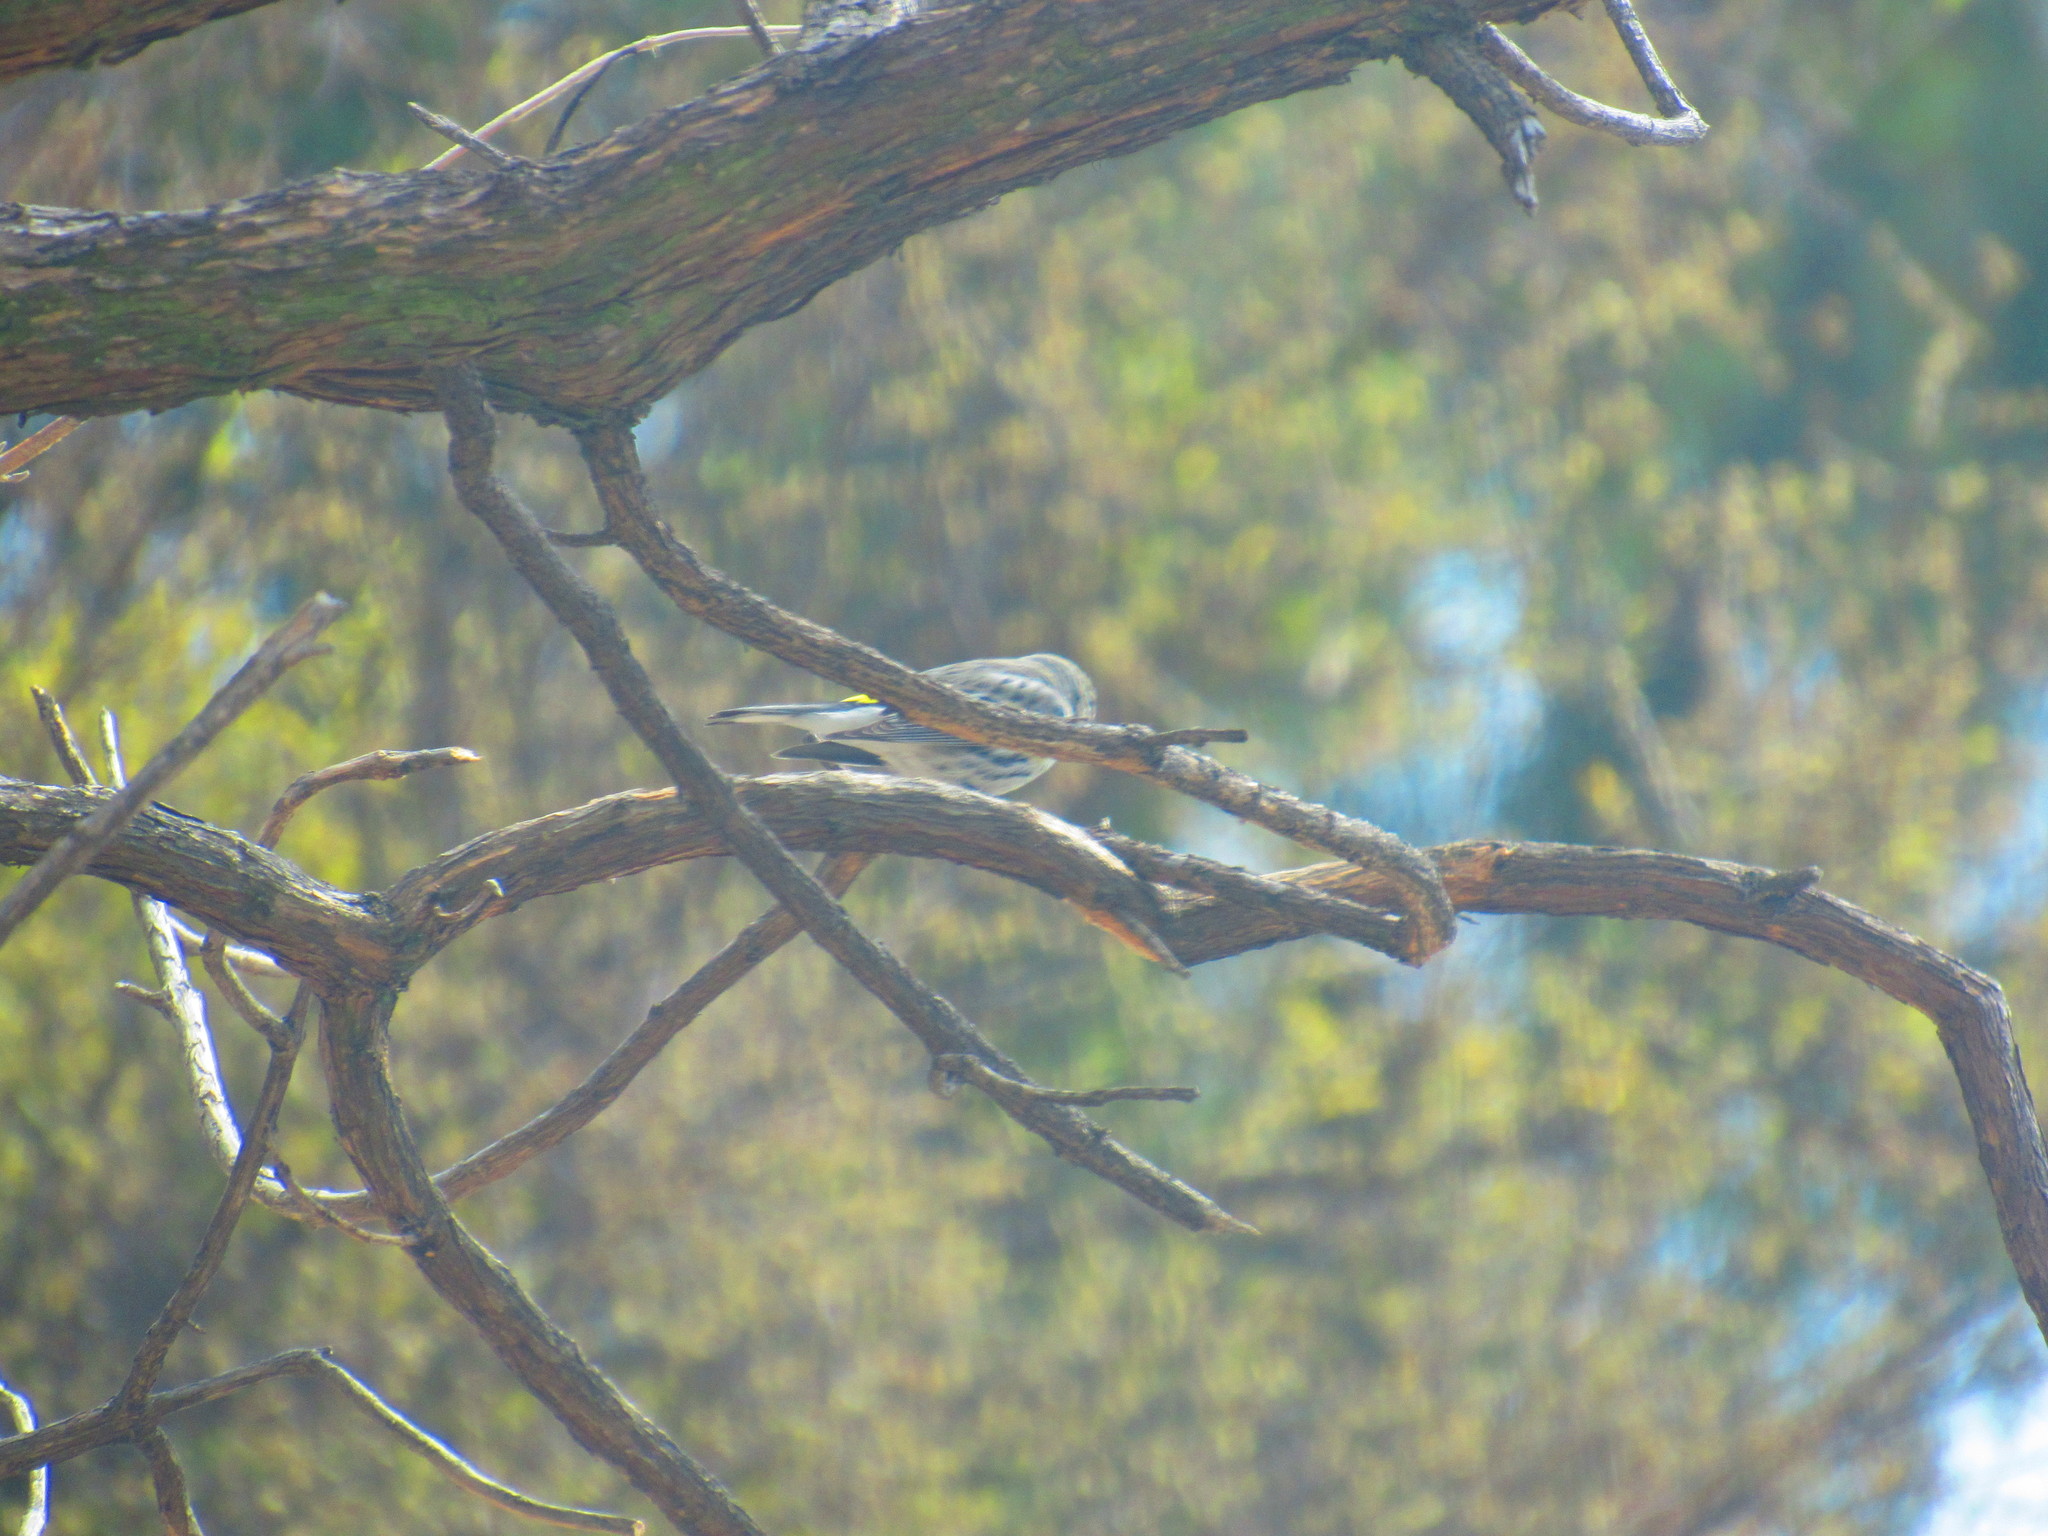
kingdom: Animalia
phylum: Chordata
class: Aves
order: Passeriformes
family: Parulidae
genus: Setophaga
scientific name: Setophaga coronata
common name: Myrtle warbler
